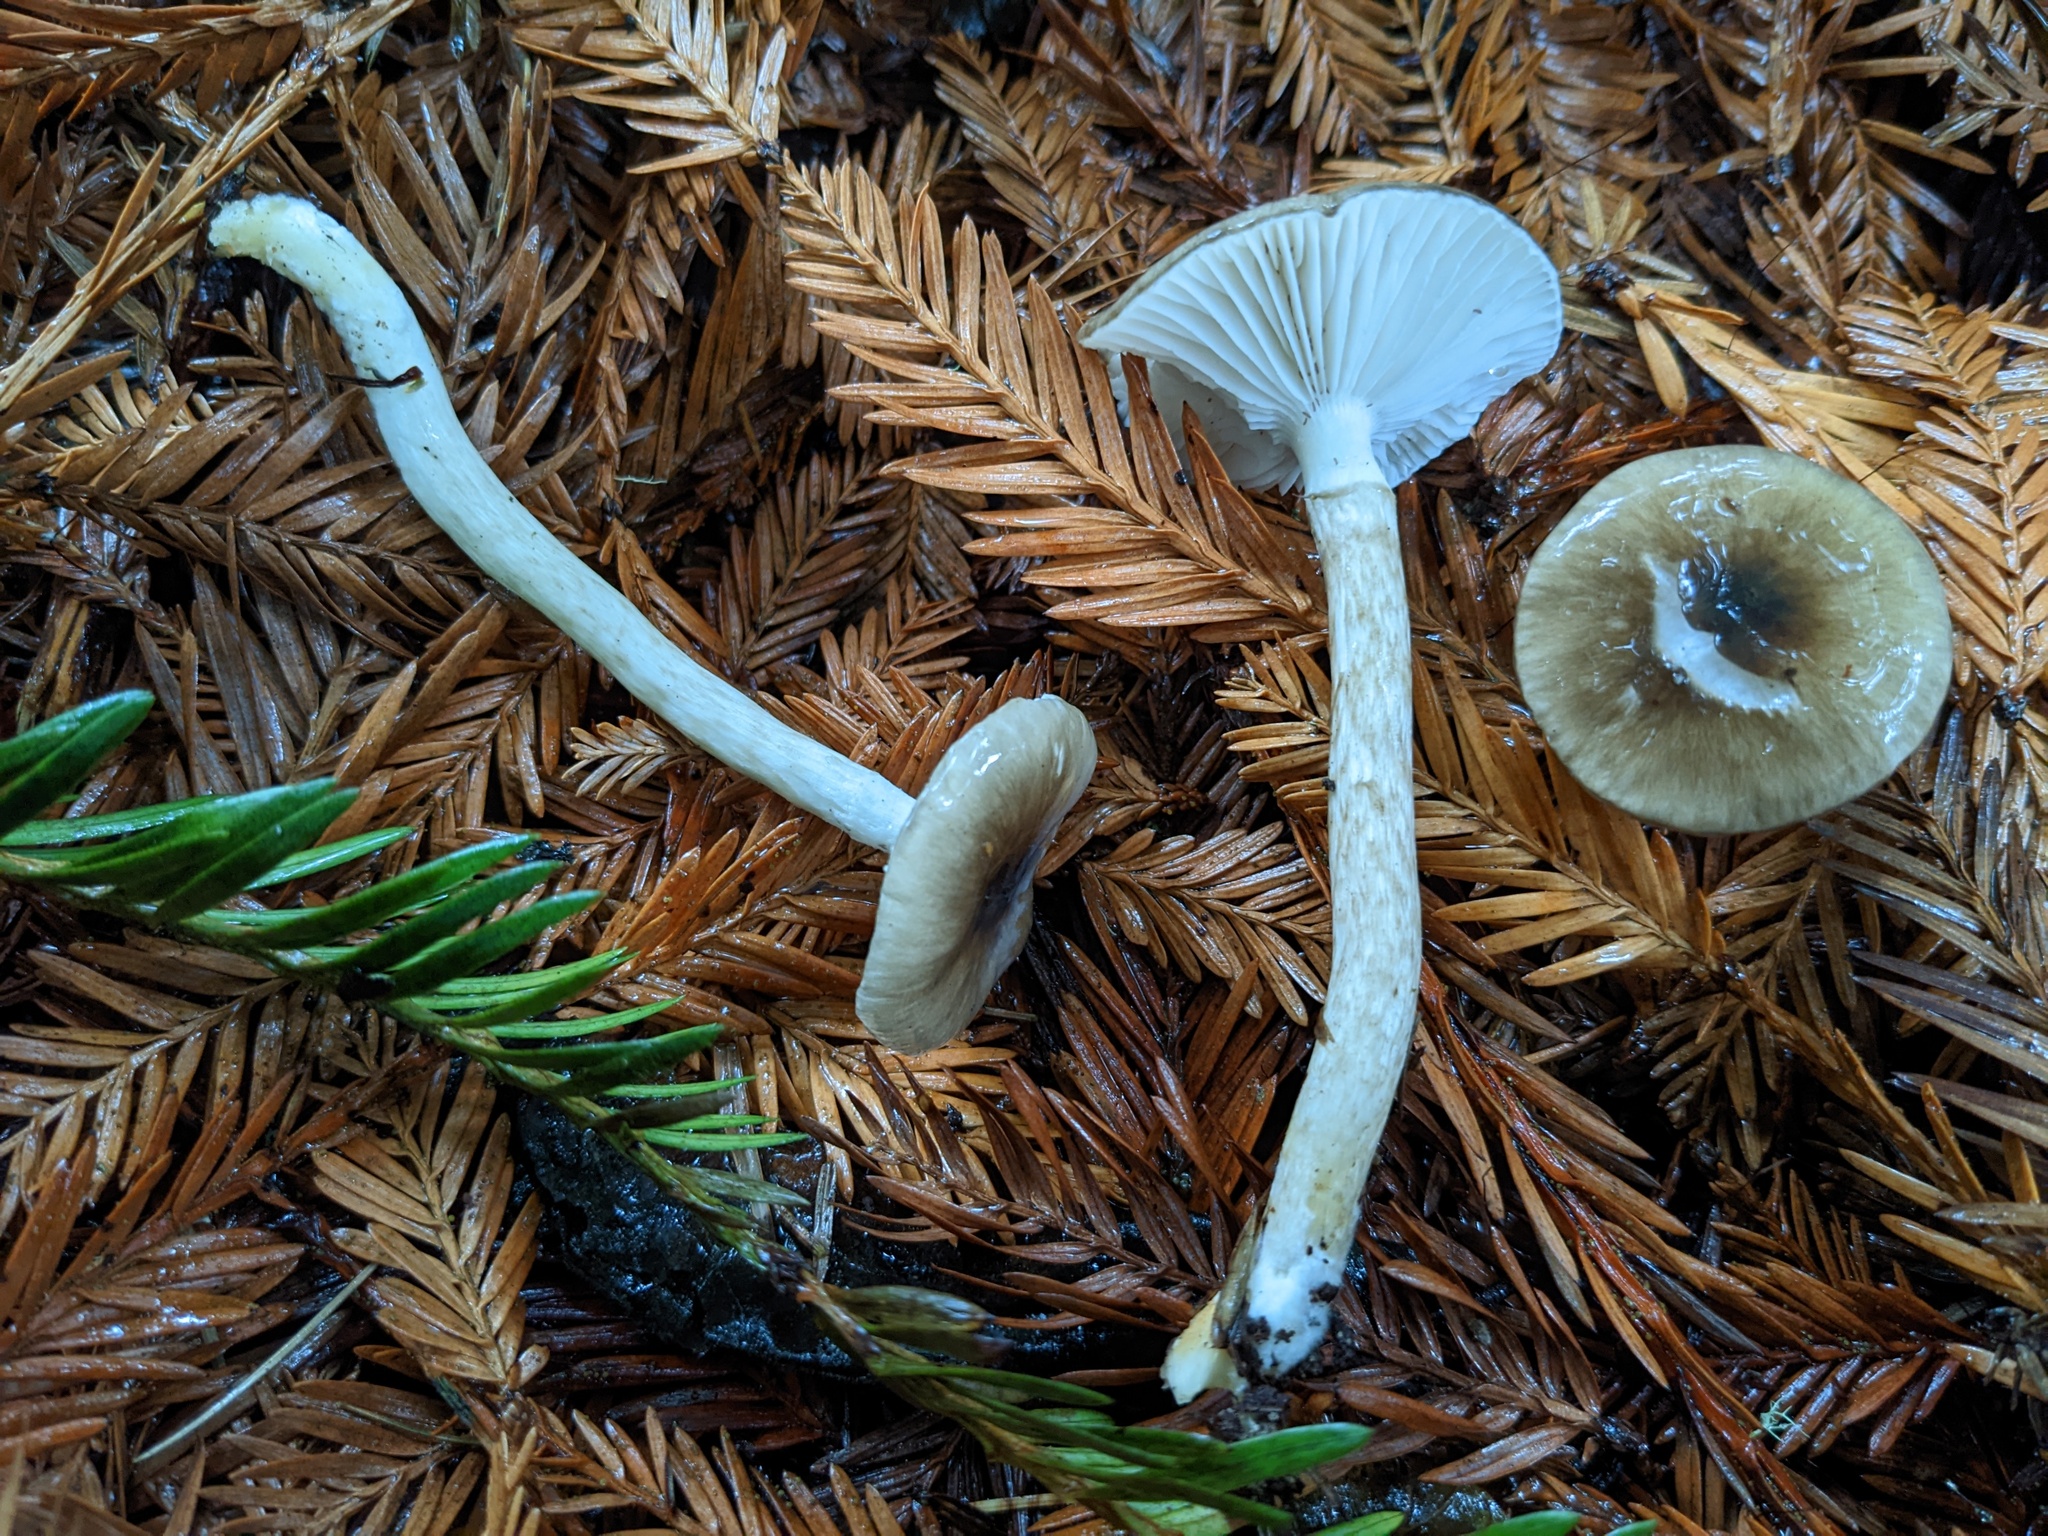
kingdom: Fungi
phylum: Basidiomycota
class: Agaricomycetes
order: Agaricales
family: Hygrophoraceae
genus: Hygrophorus
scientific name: Hygrophorus olivaceoalbus
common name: Olive wax cap
